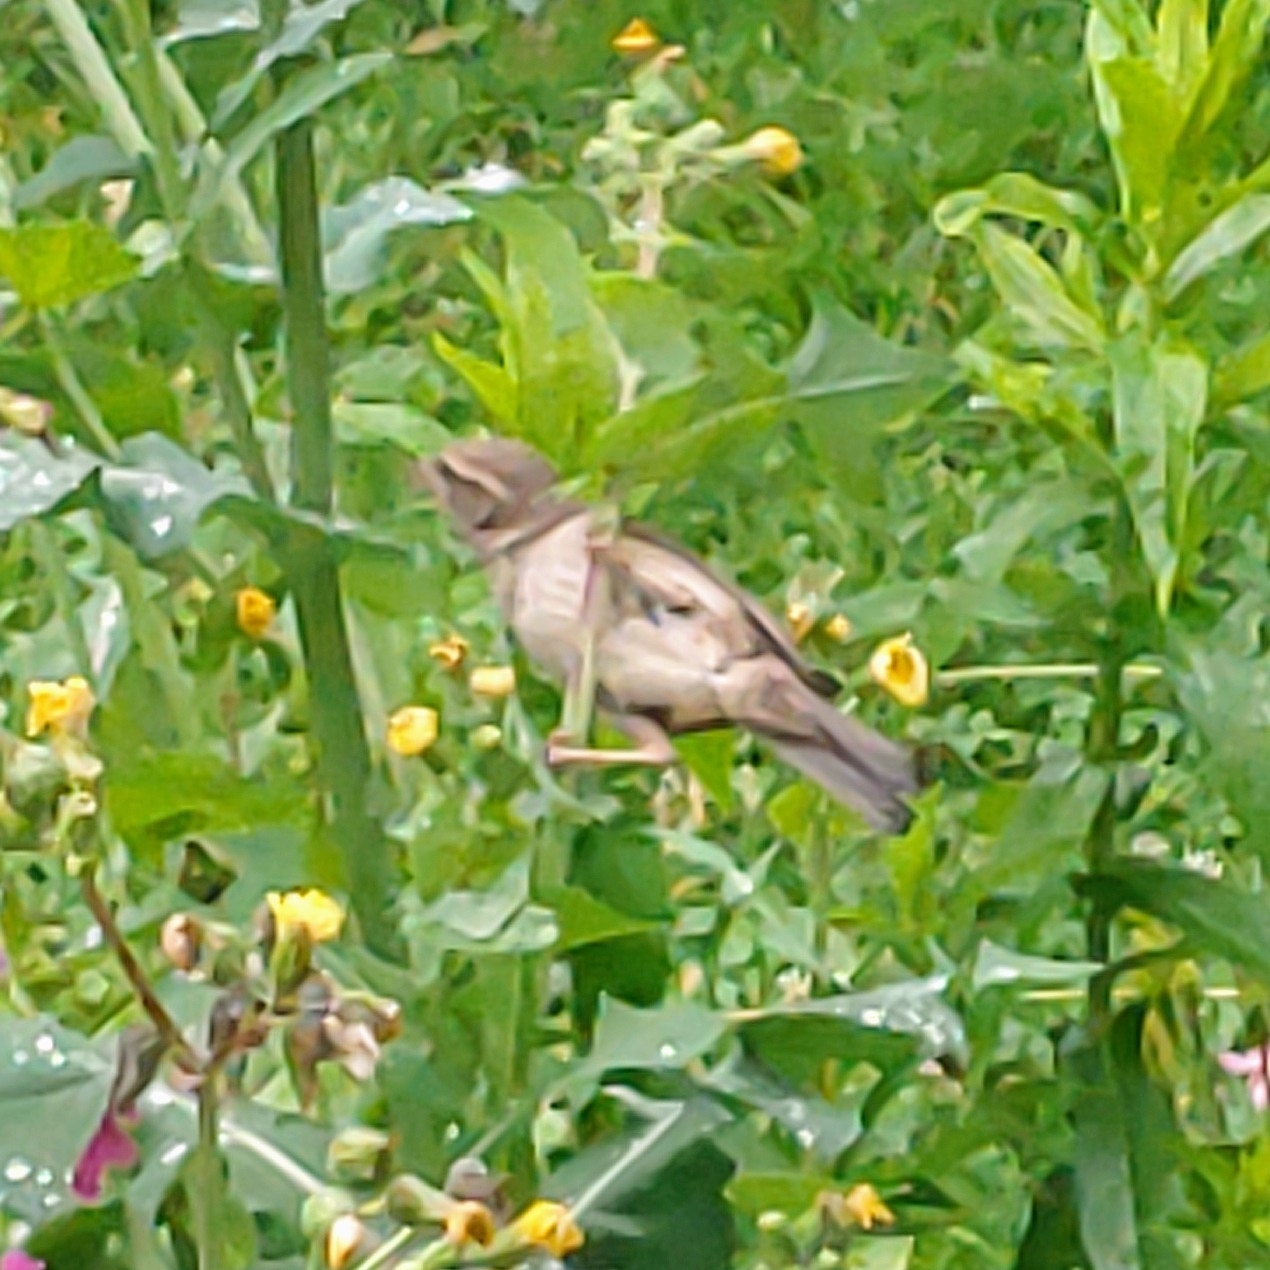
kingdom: Animalia
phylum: Chordata
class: Aves
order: Passeriformes
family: Passeridae
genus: Passer
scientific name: Passer domesticus
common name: House sparrow
